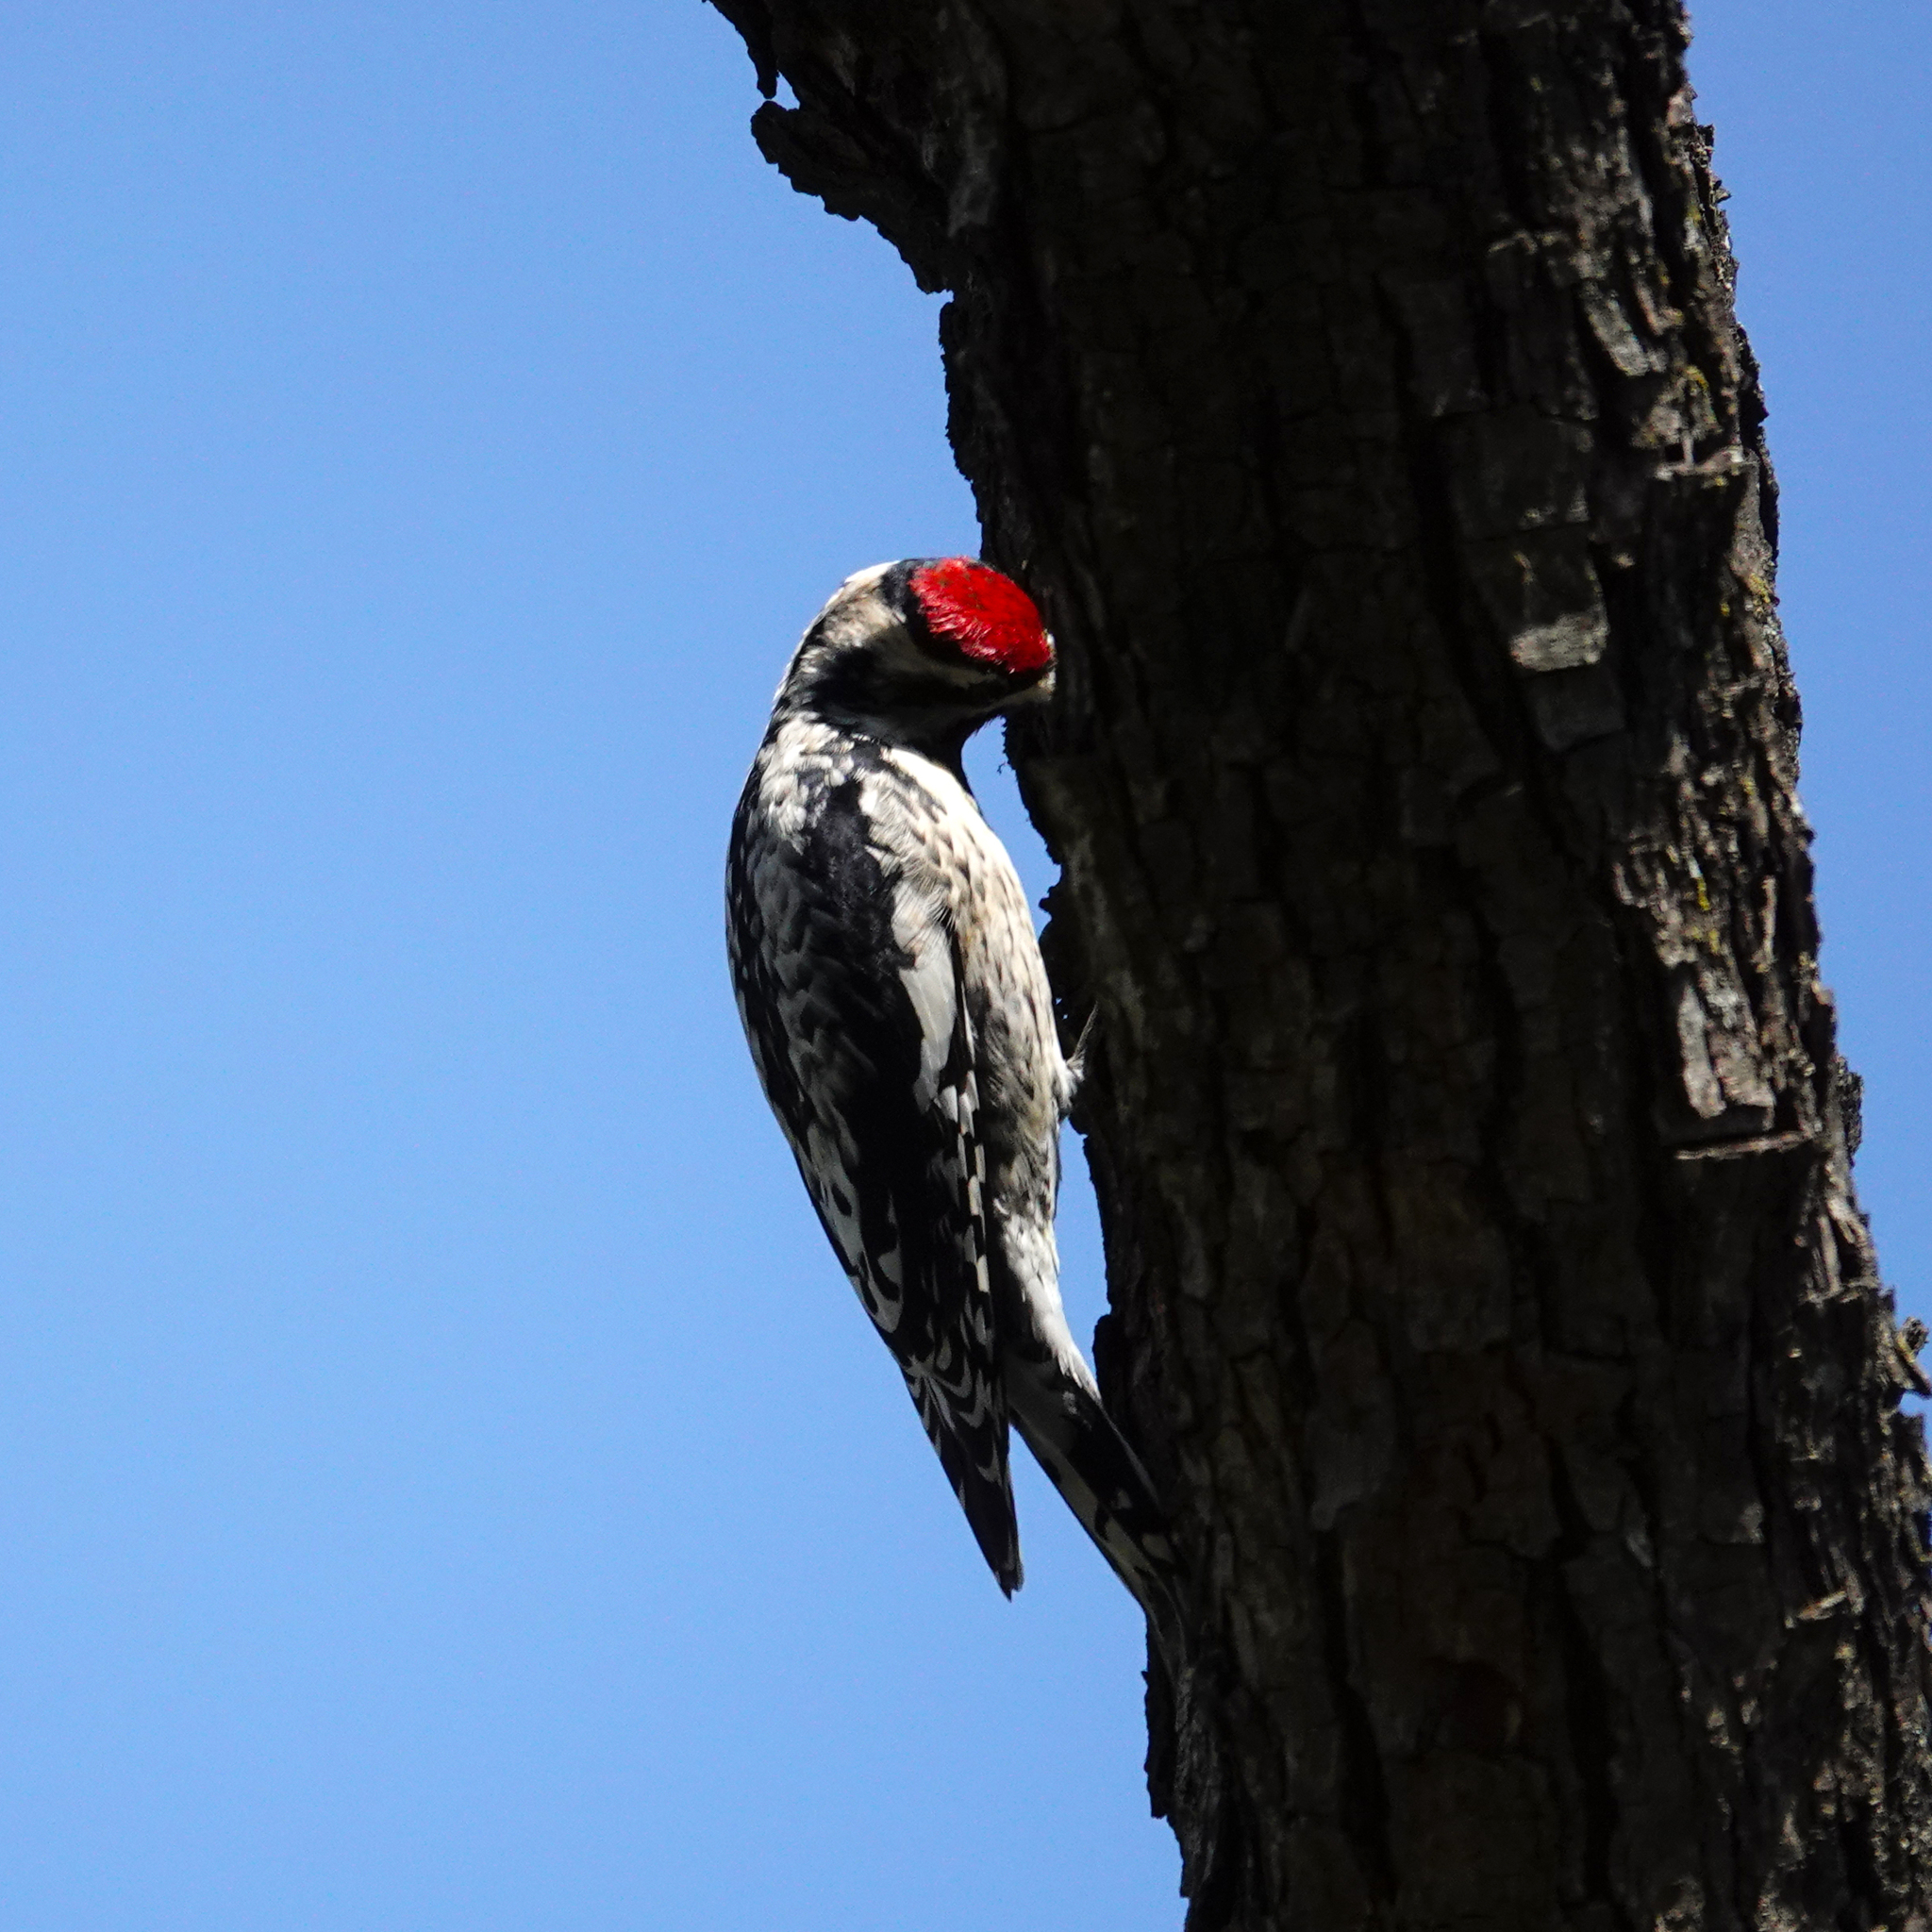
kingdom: Animalia
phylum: Chordata
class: Aves
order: Piciformes
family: Picidae
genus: Sphyrapicus
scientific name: Sphyrapicus varius
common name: Yellow-bellied sapsucker
